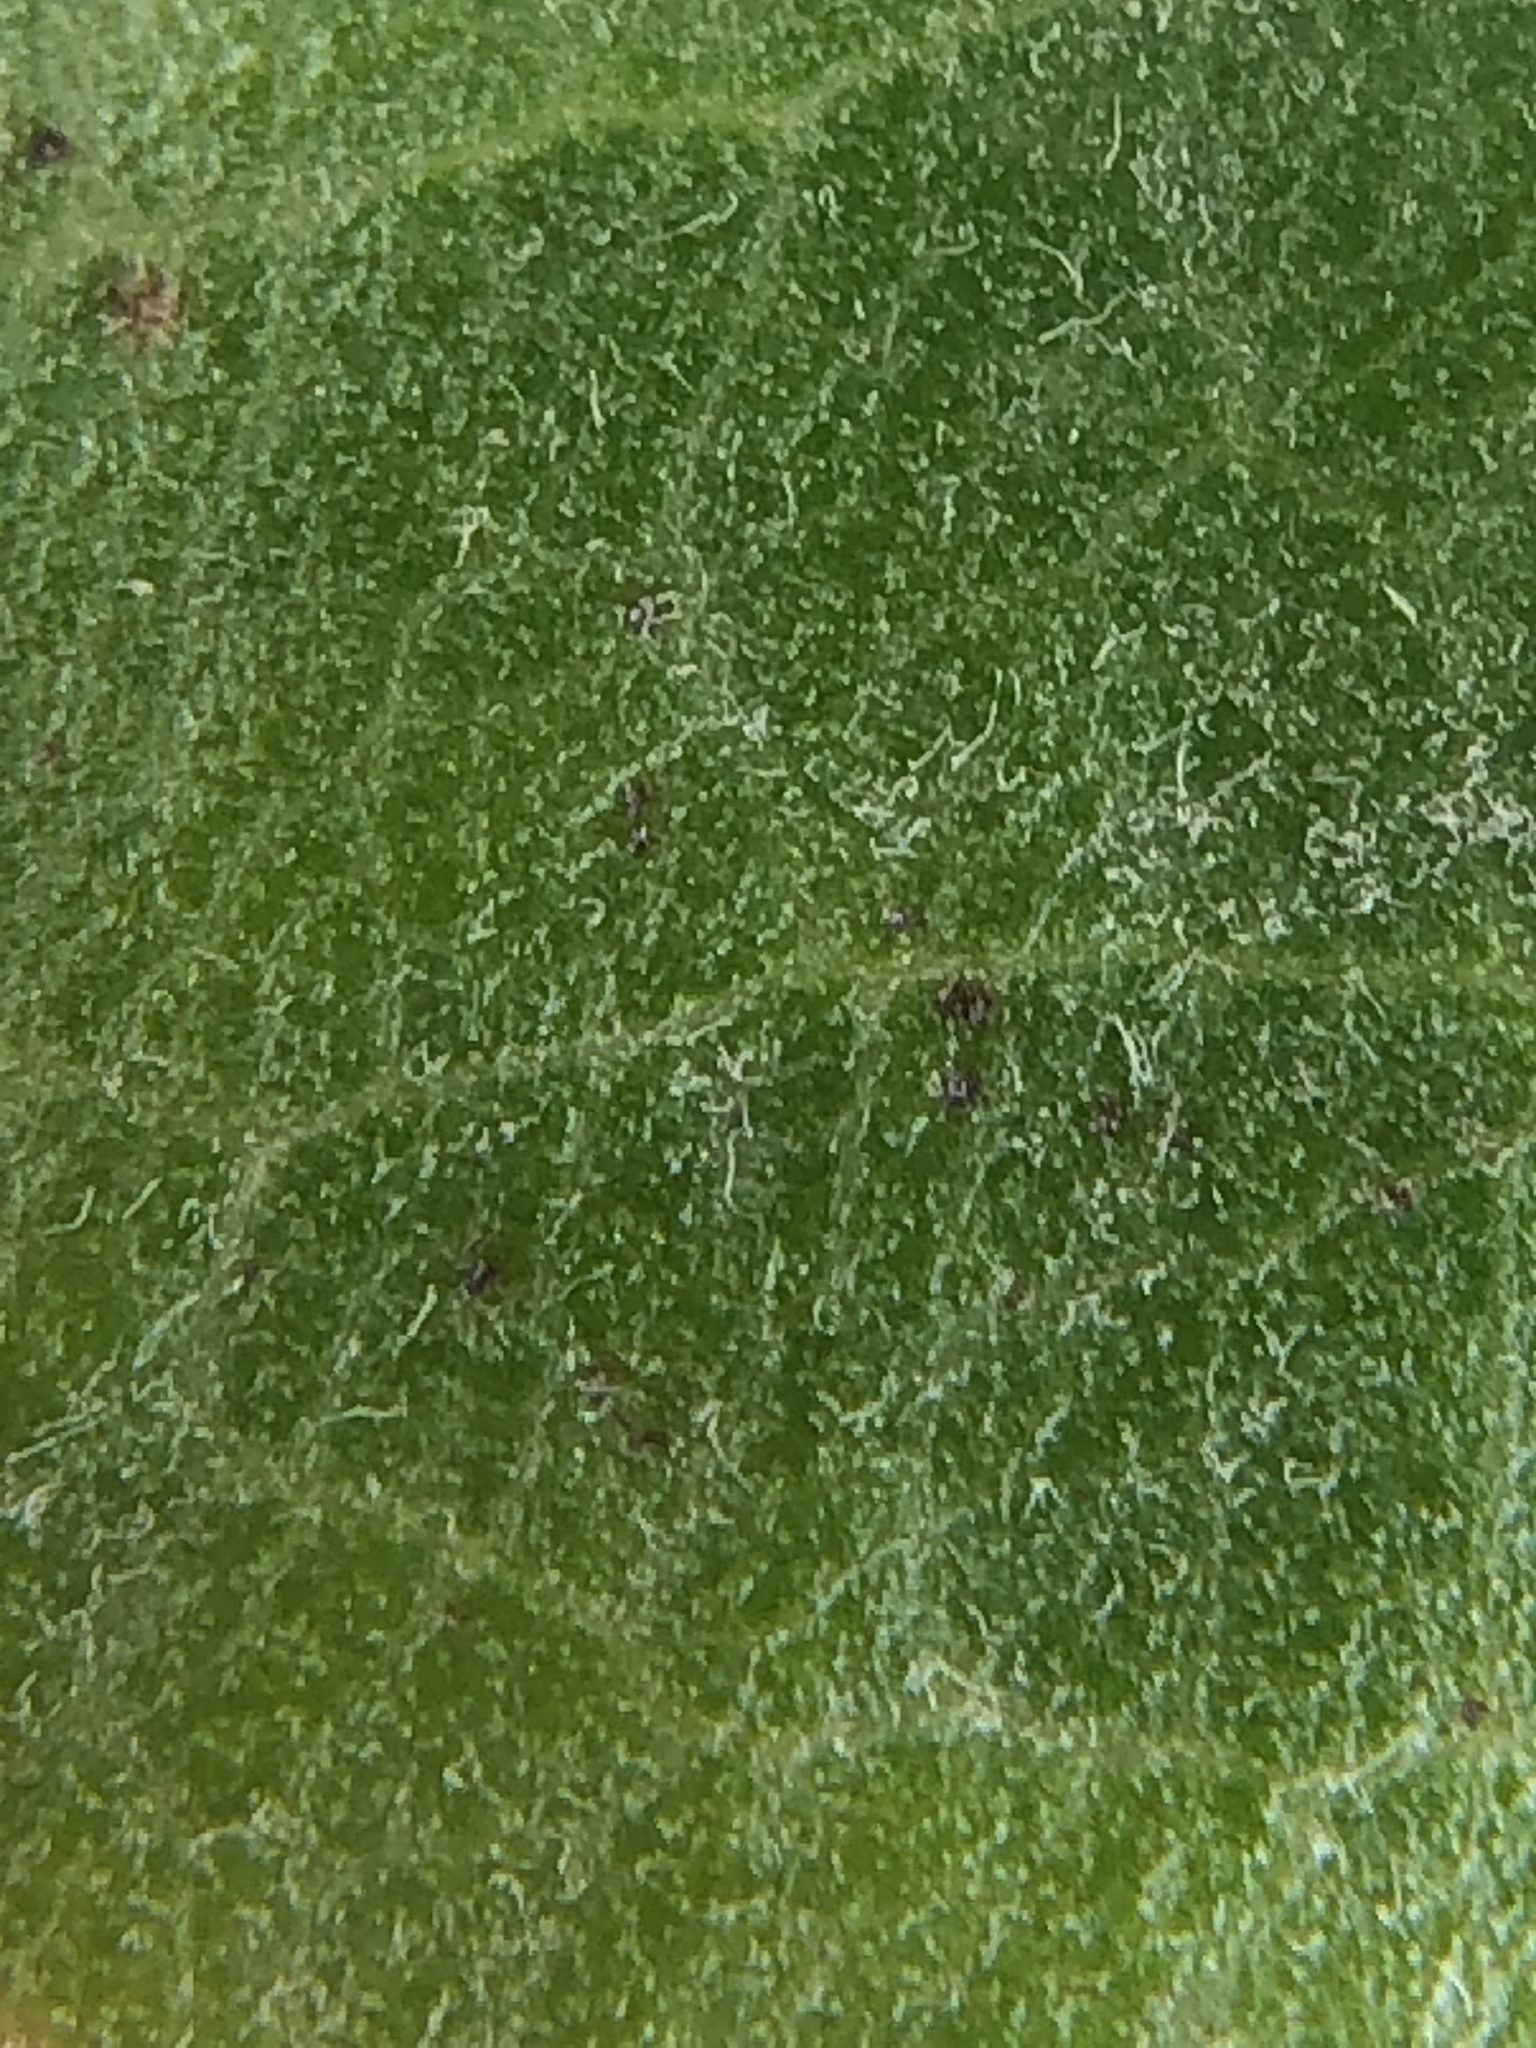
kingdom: Plantae
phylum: Tracheophyta
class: Magnoliopsida
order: Ericales
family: Ericaceae
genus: Arctostaphylos
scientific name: Arctostaphylos crustacea
